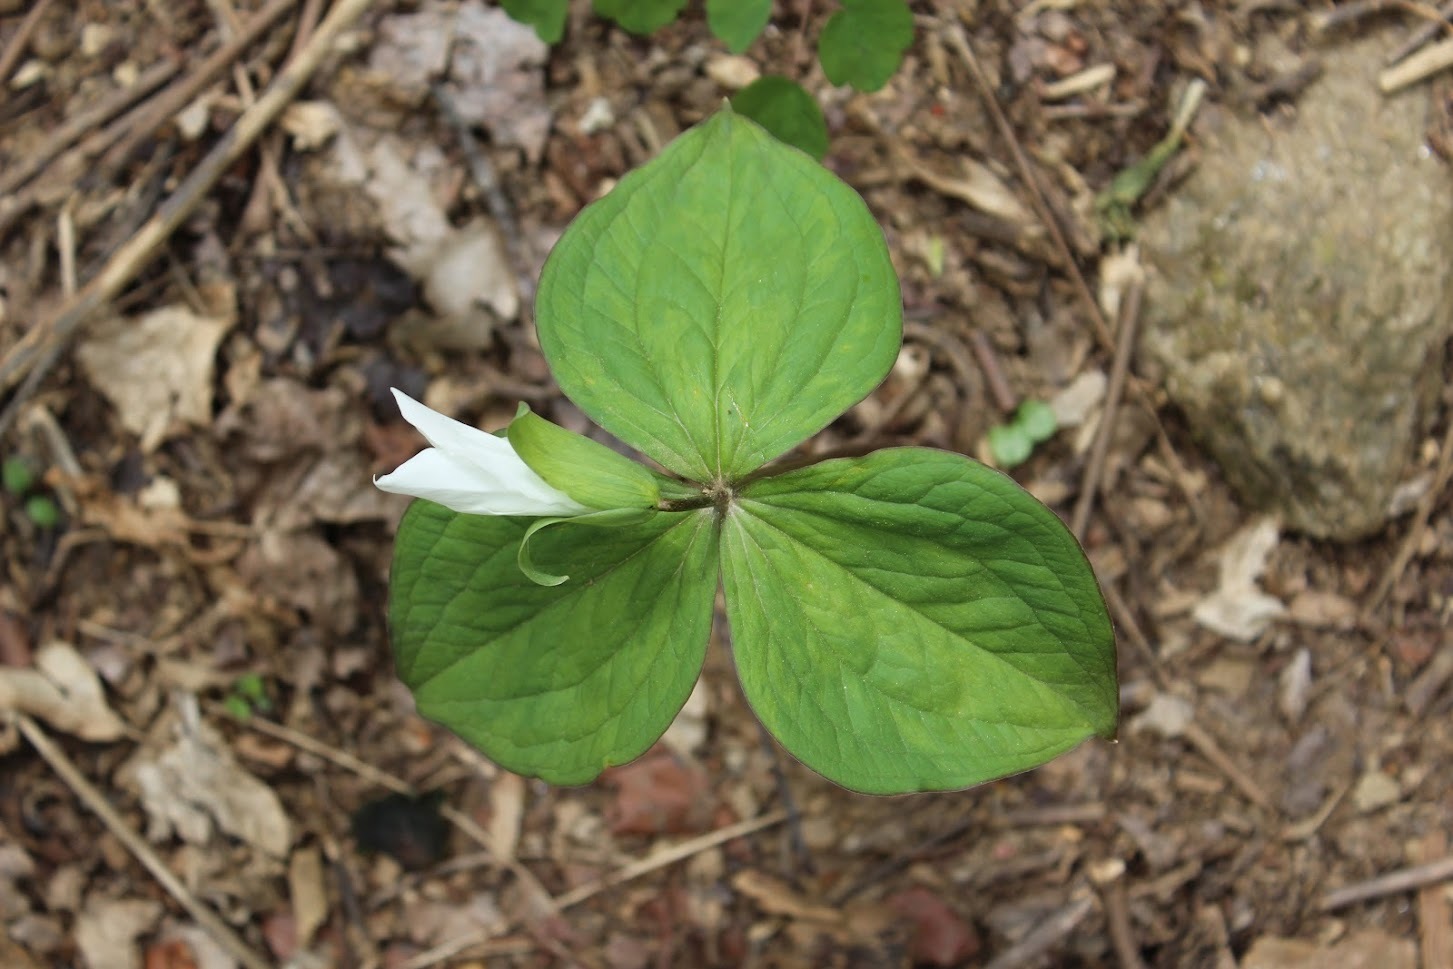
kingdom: Plantae
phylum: Tracheophyta
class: Liliopsida
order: Liliales
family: Melanthiaceae
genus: Trillium
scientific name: Trillium grandiflorum
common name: Great white trillium
